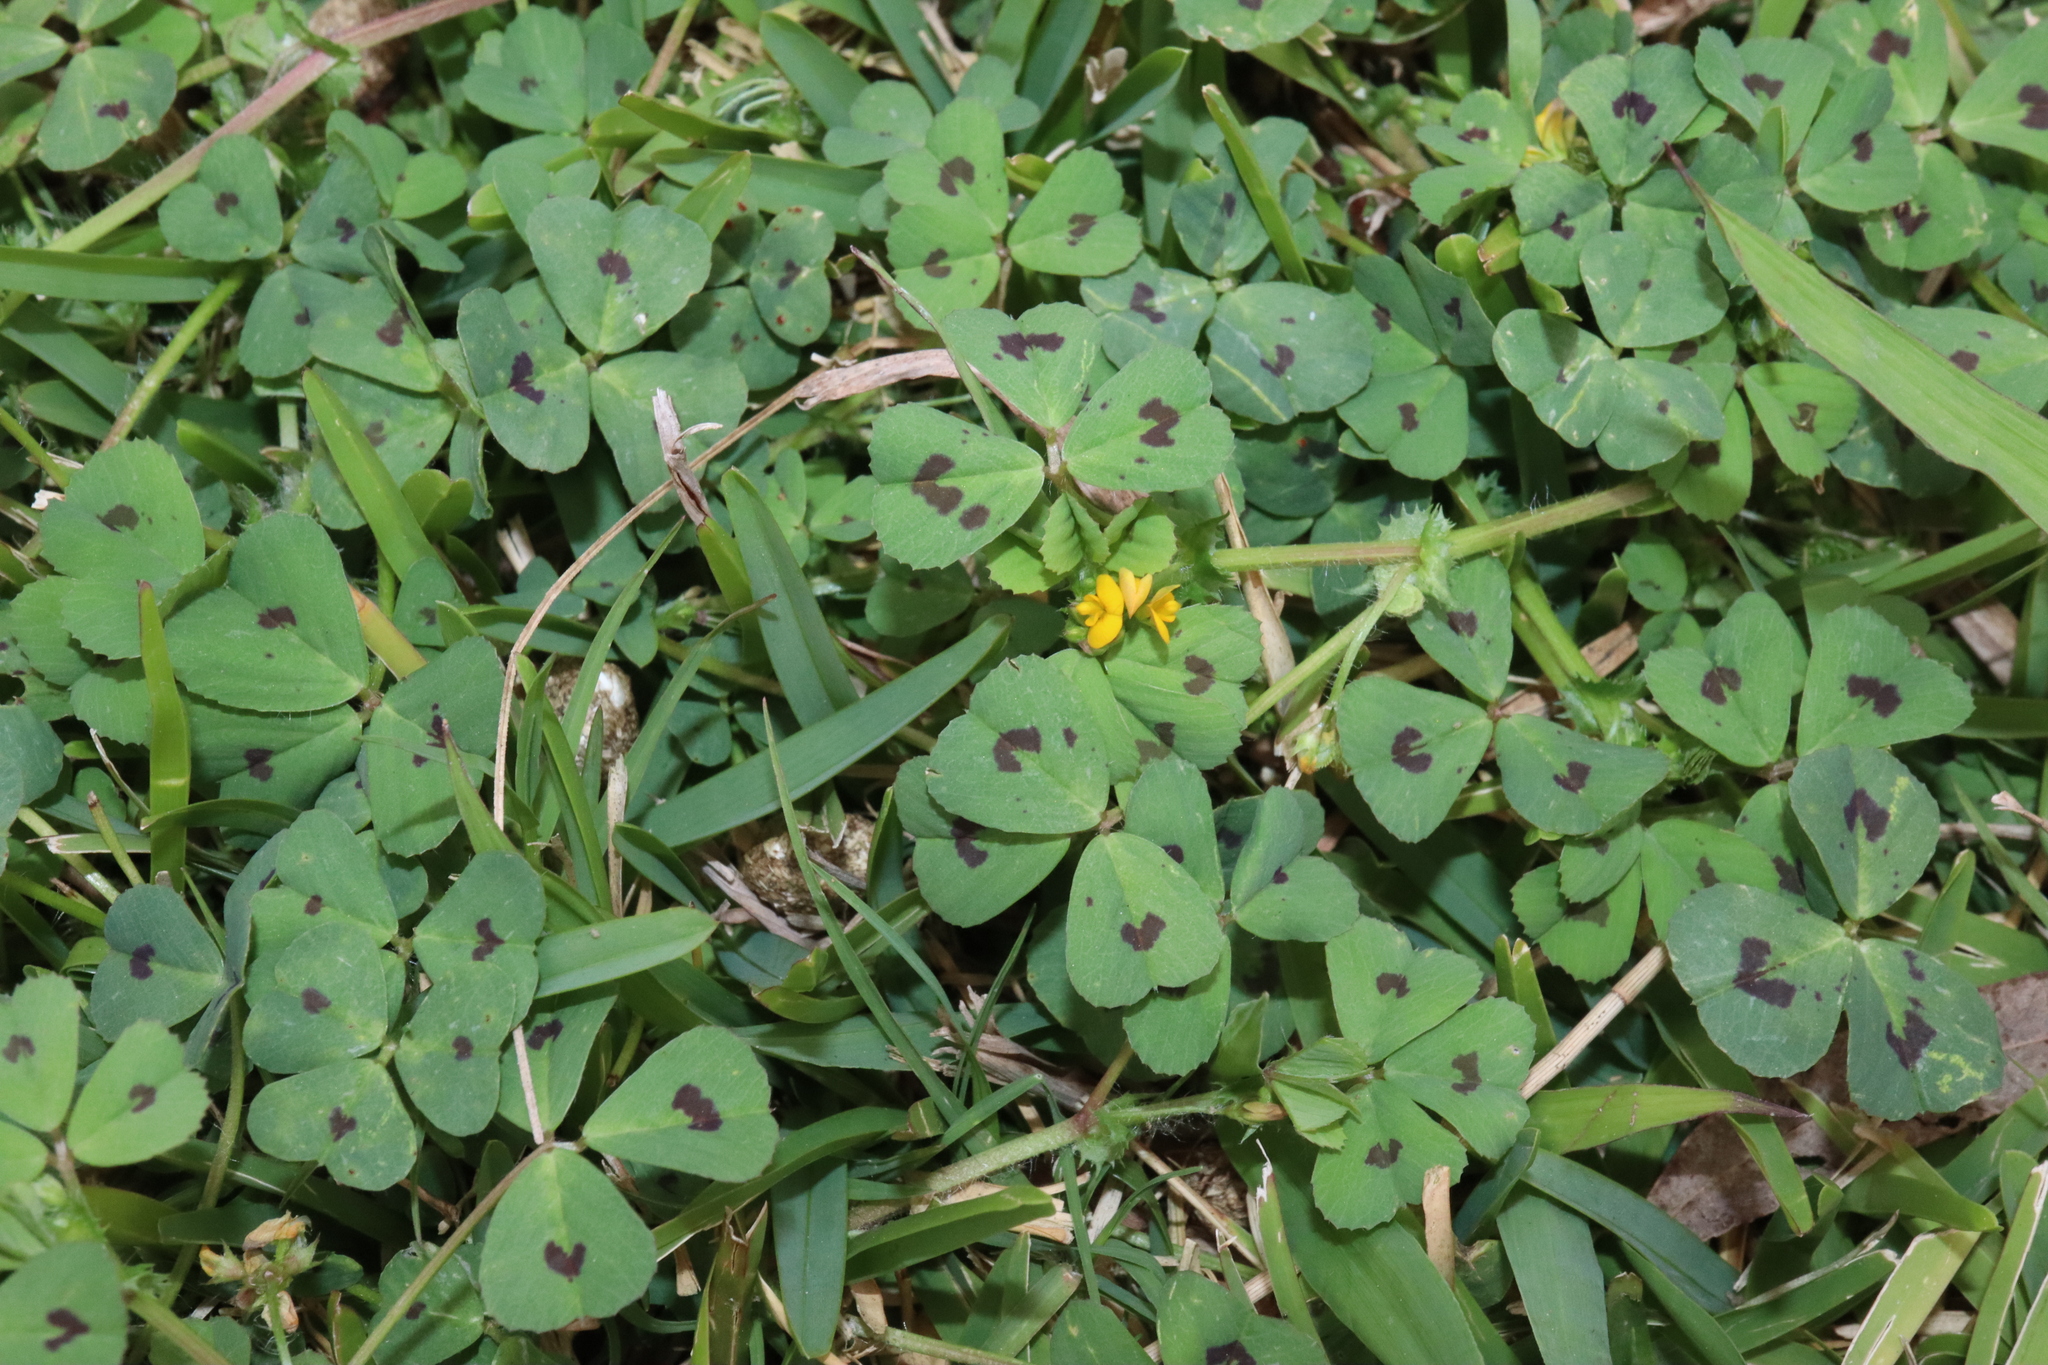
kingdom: Plantae
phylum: Tracheophyta
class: Magnoliopsida
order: Fabales
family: Fabaceae
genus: Medicago
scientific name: Medicago arabica
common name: Spotted medick
